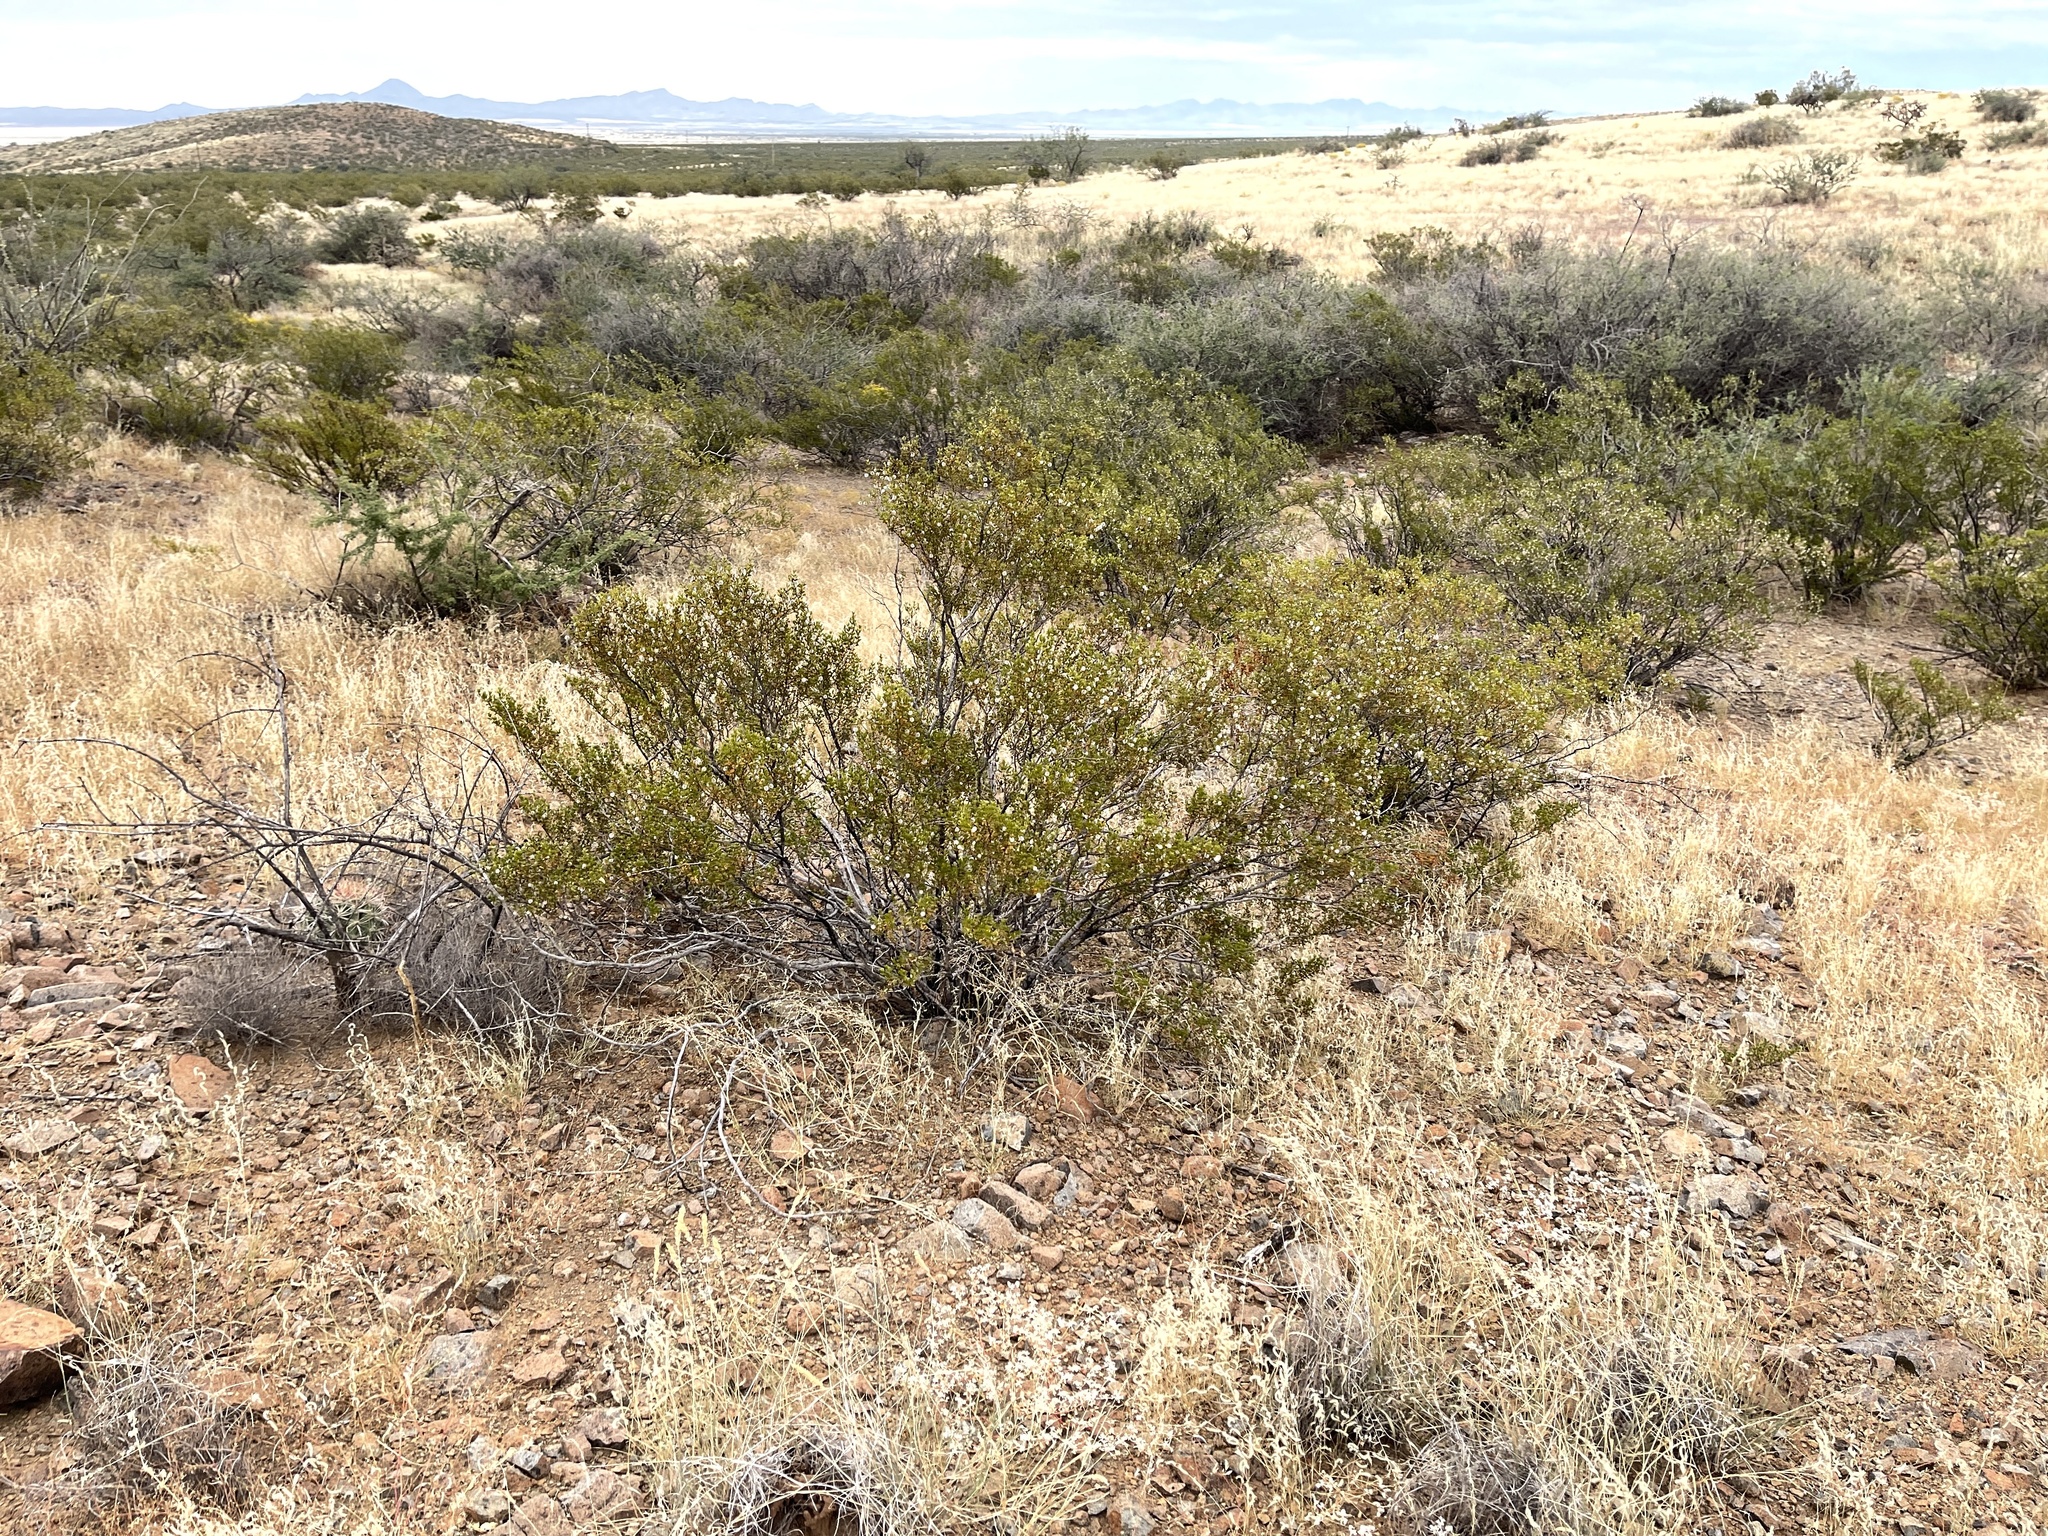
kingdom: Plantae
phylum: Tracheophyta
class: Magnoliopsida
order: Zygophyllales
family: Zygophyllaceae
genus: Larrea
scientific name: Larrea tridentata
